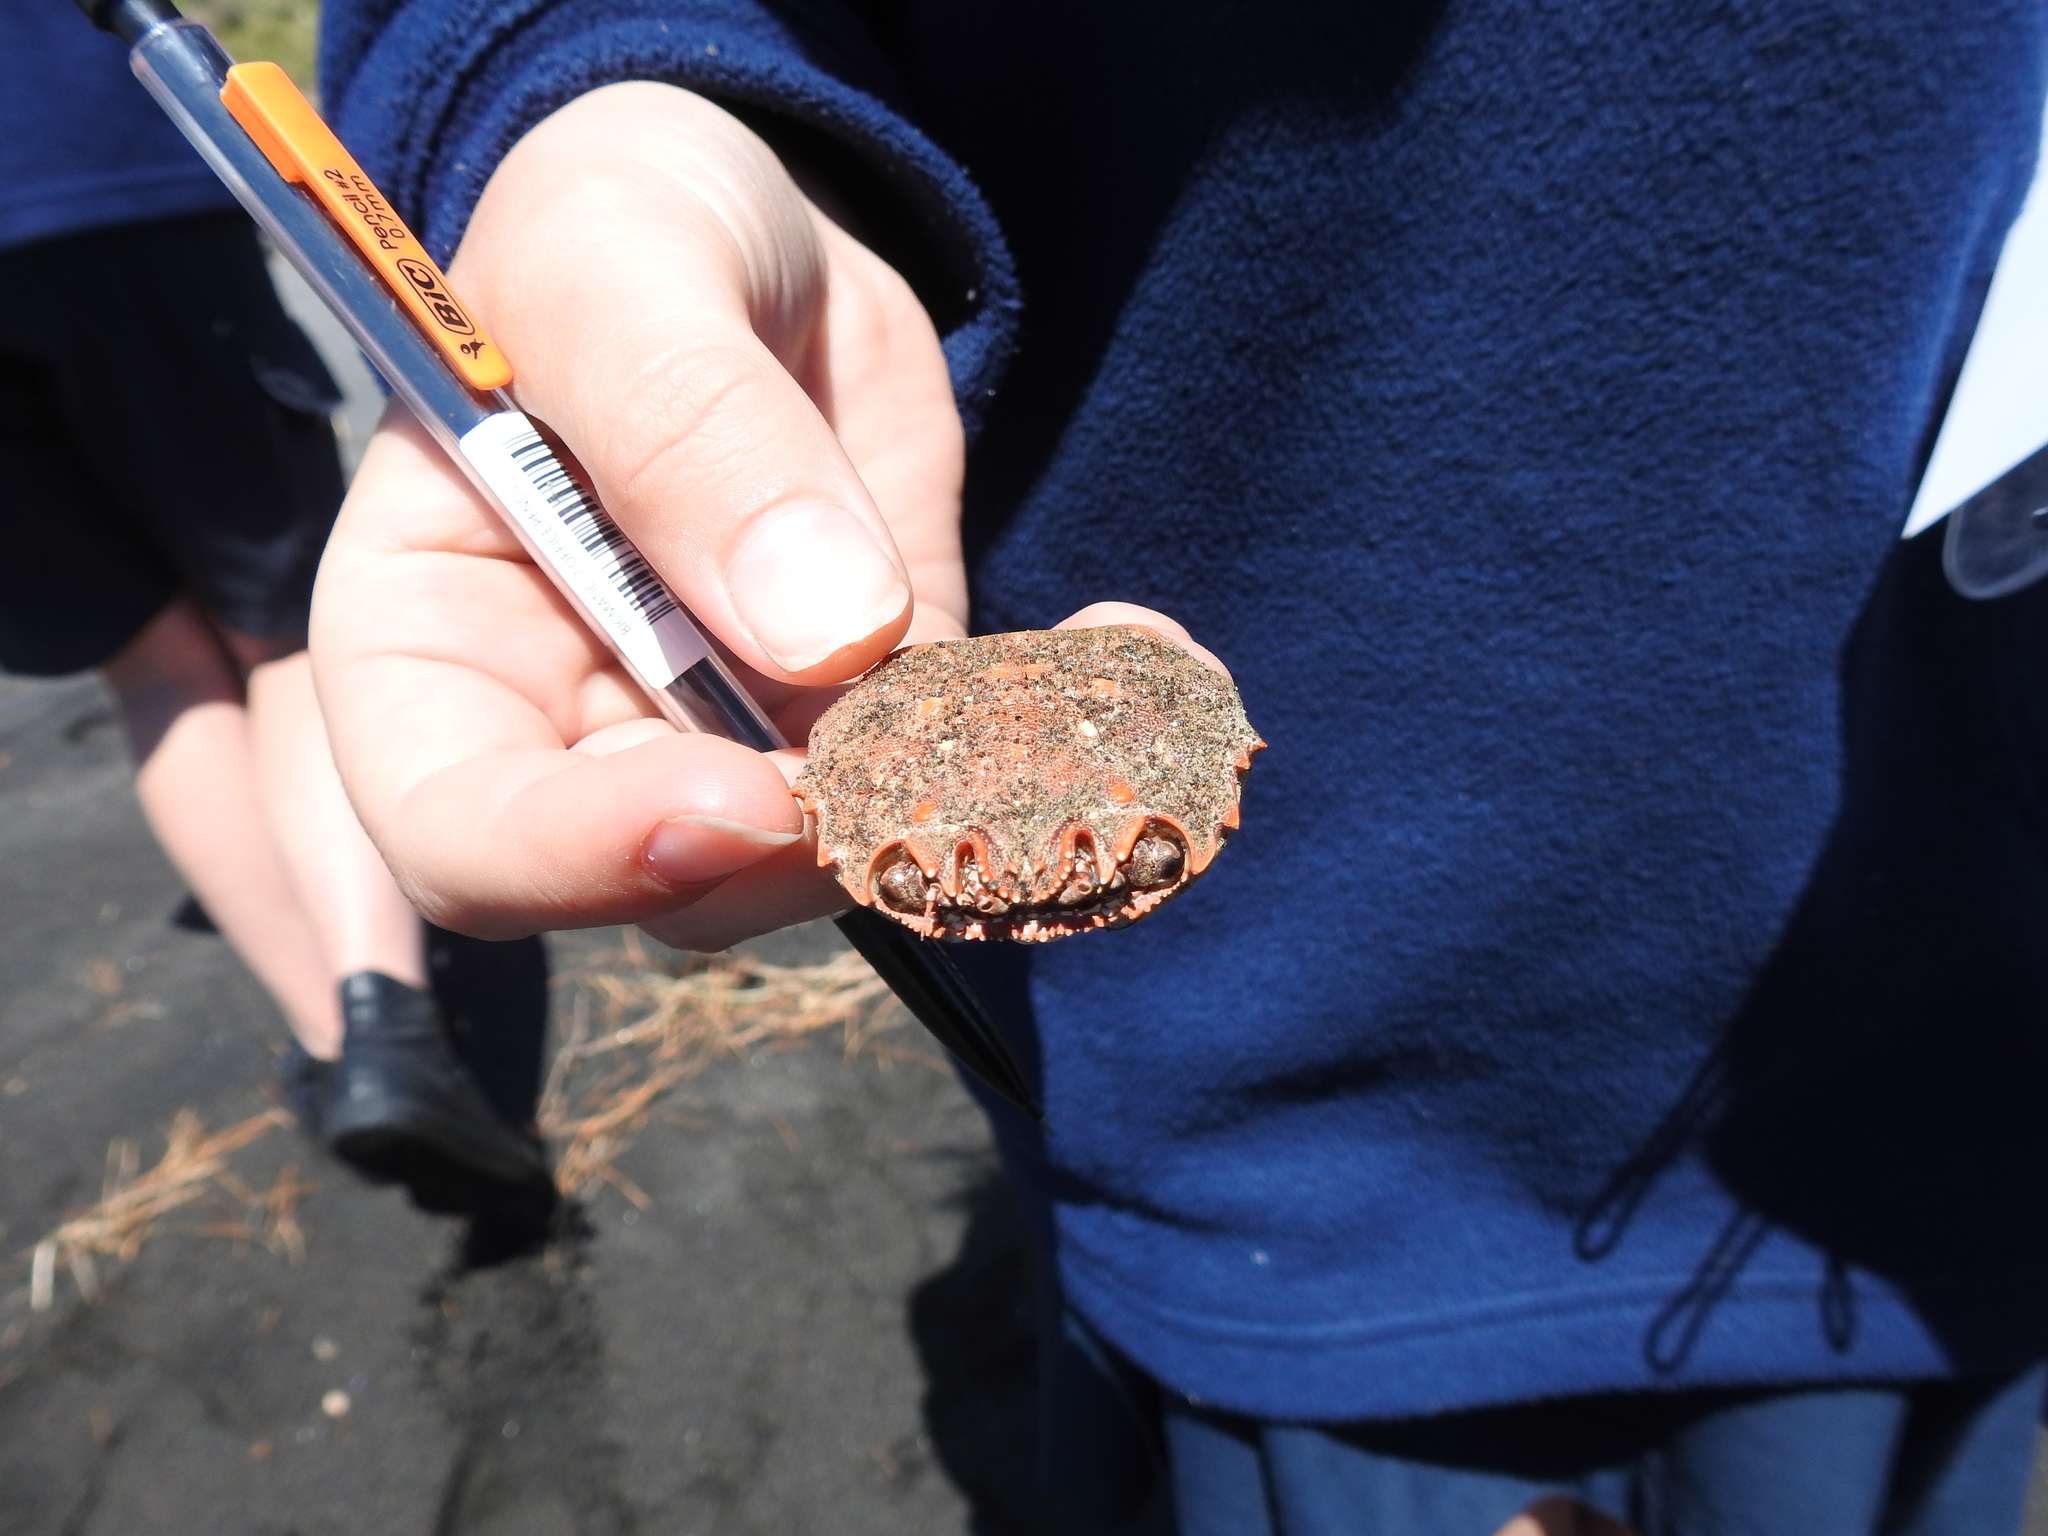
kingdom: Animalia
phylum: Arthropoda
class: Malacostraca
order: Decapoda
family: Plagusiidae
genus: Guinusia
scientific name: Guinusia chabrus
